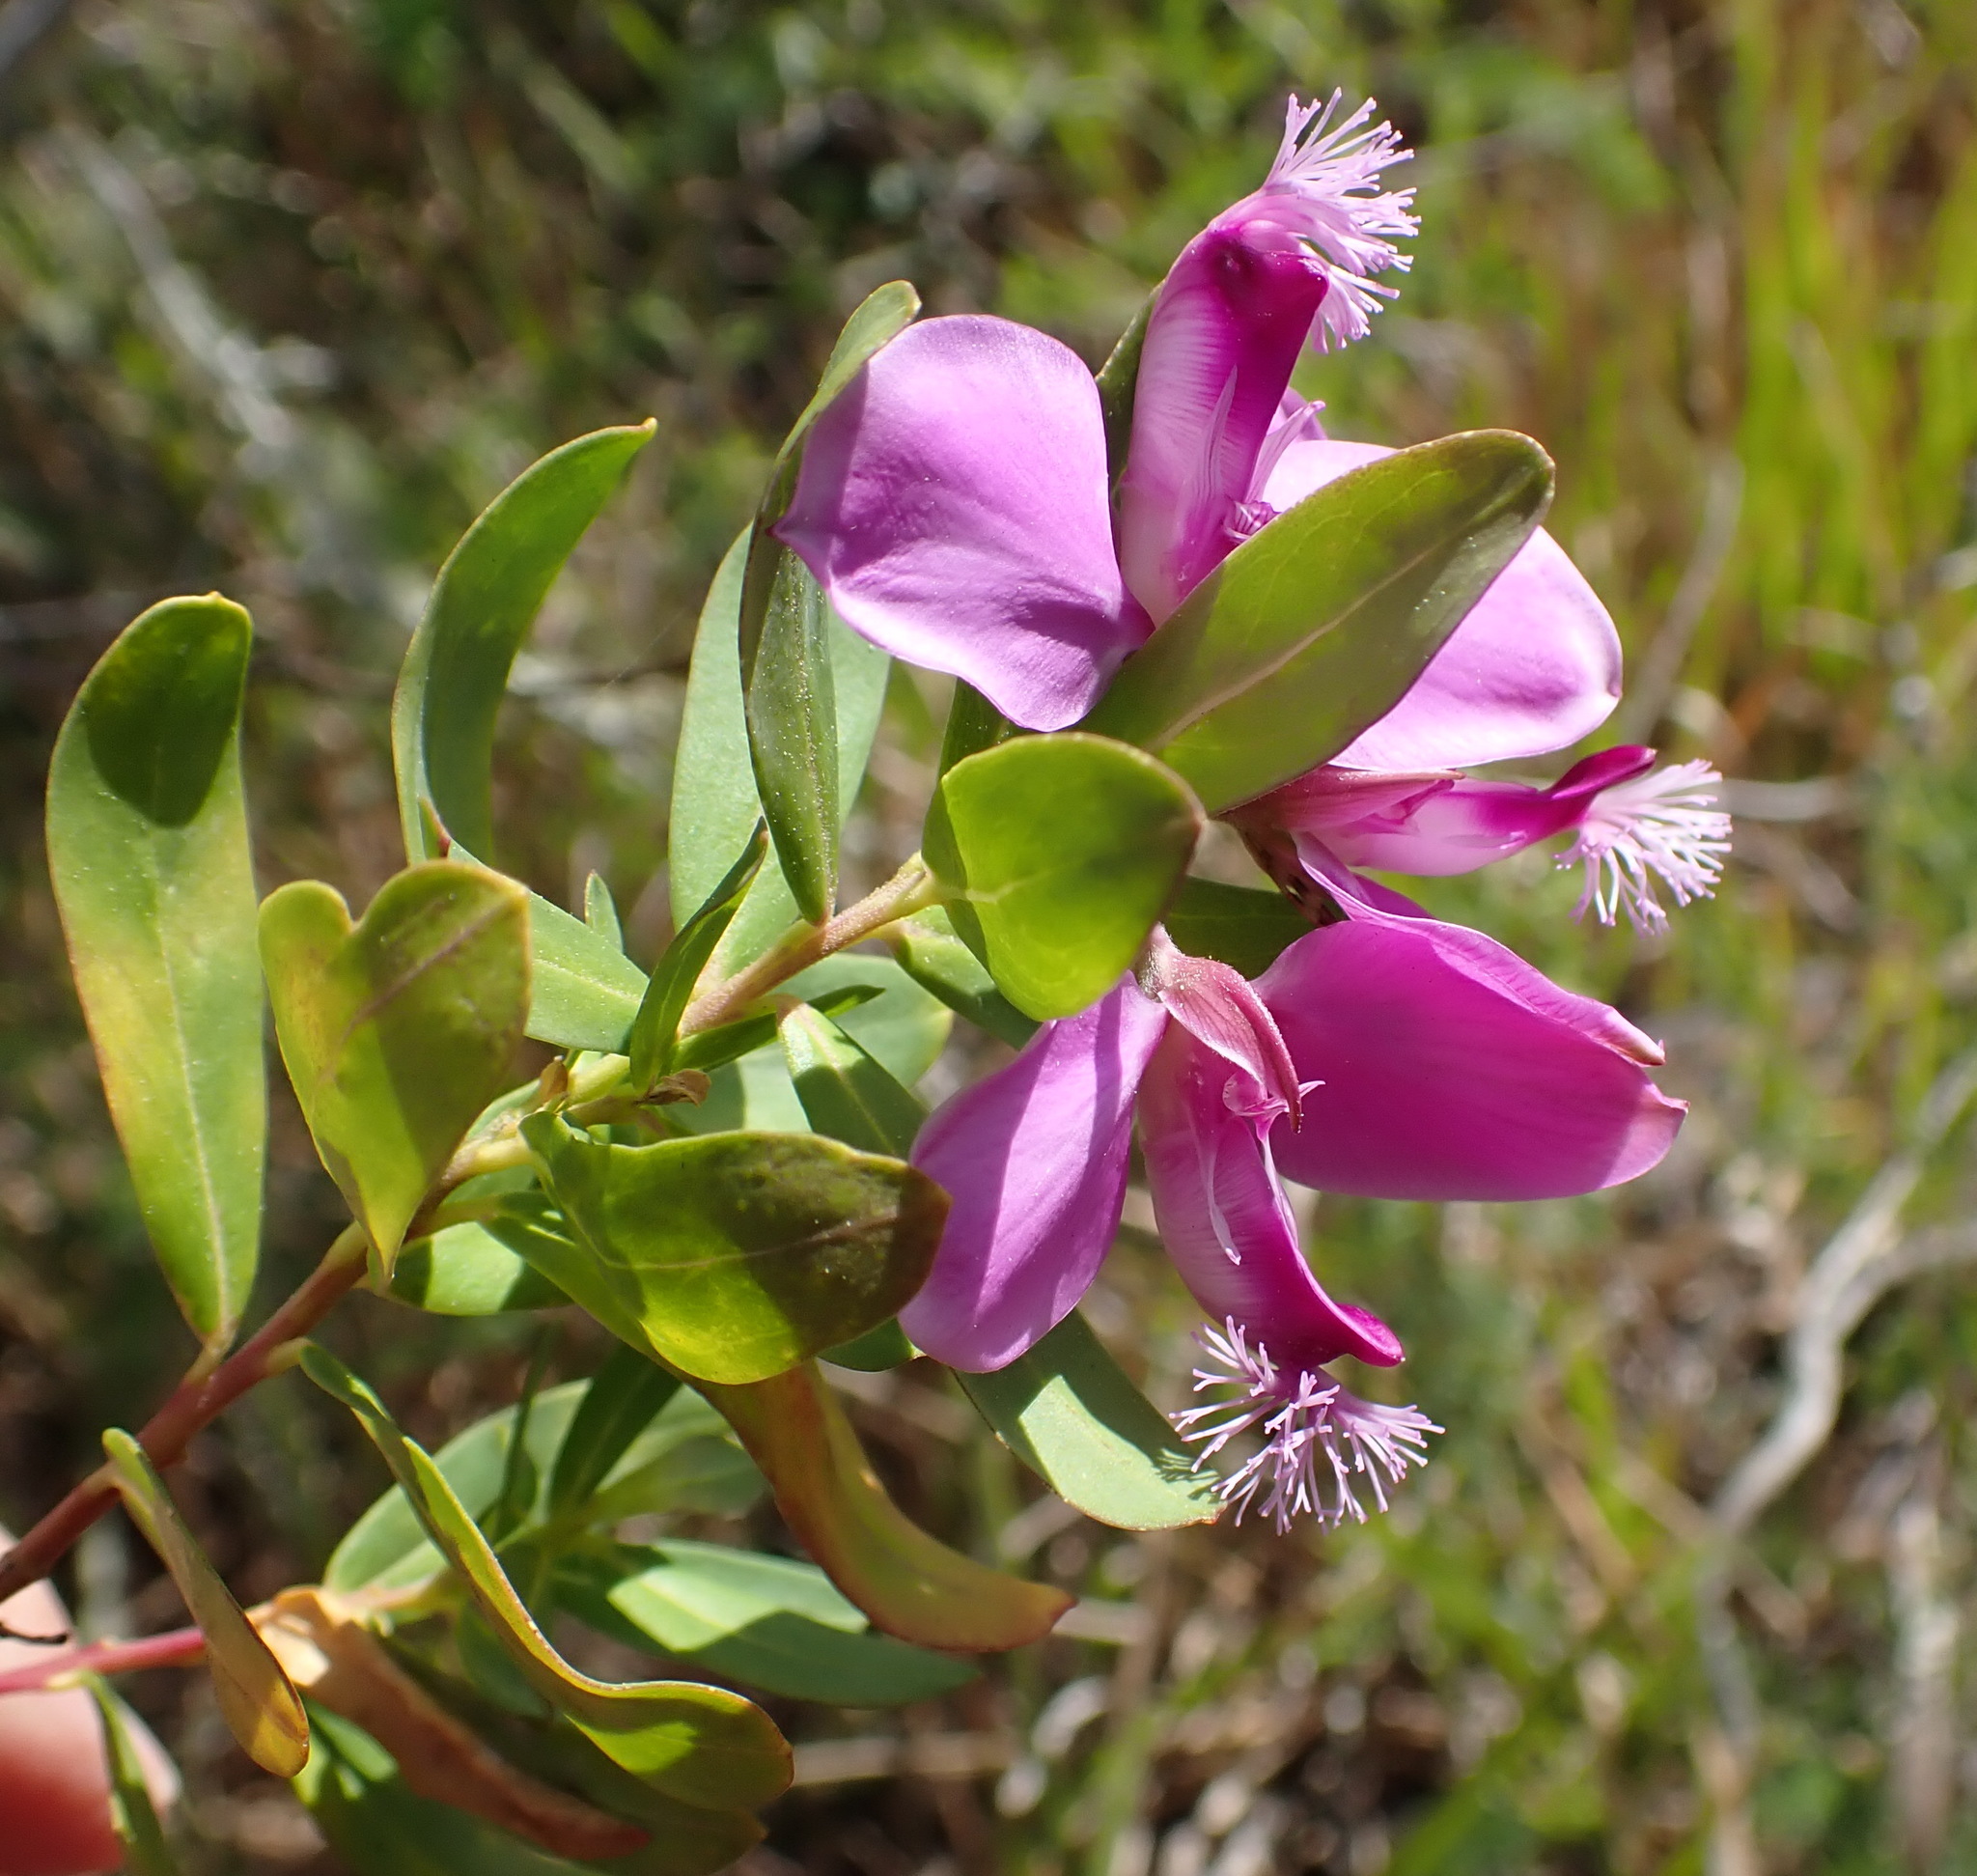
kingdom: Plantae
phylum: Tracheophyta
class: Magnoliopsida
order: Fabales
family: Polygalaceae
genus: Polygala
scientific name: Polygala myrtifolia
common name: Myrtle-leaf milkwort
